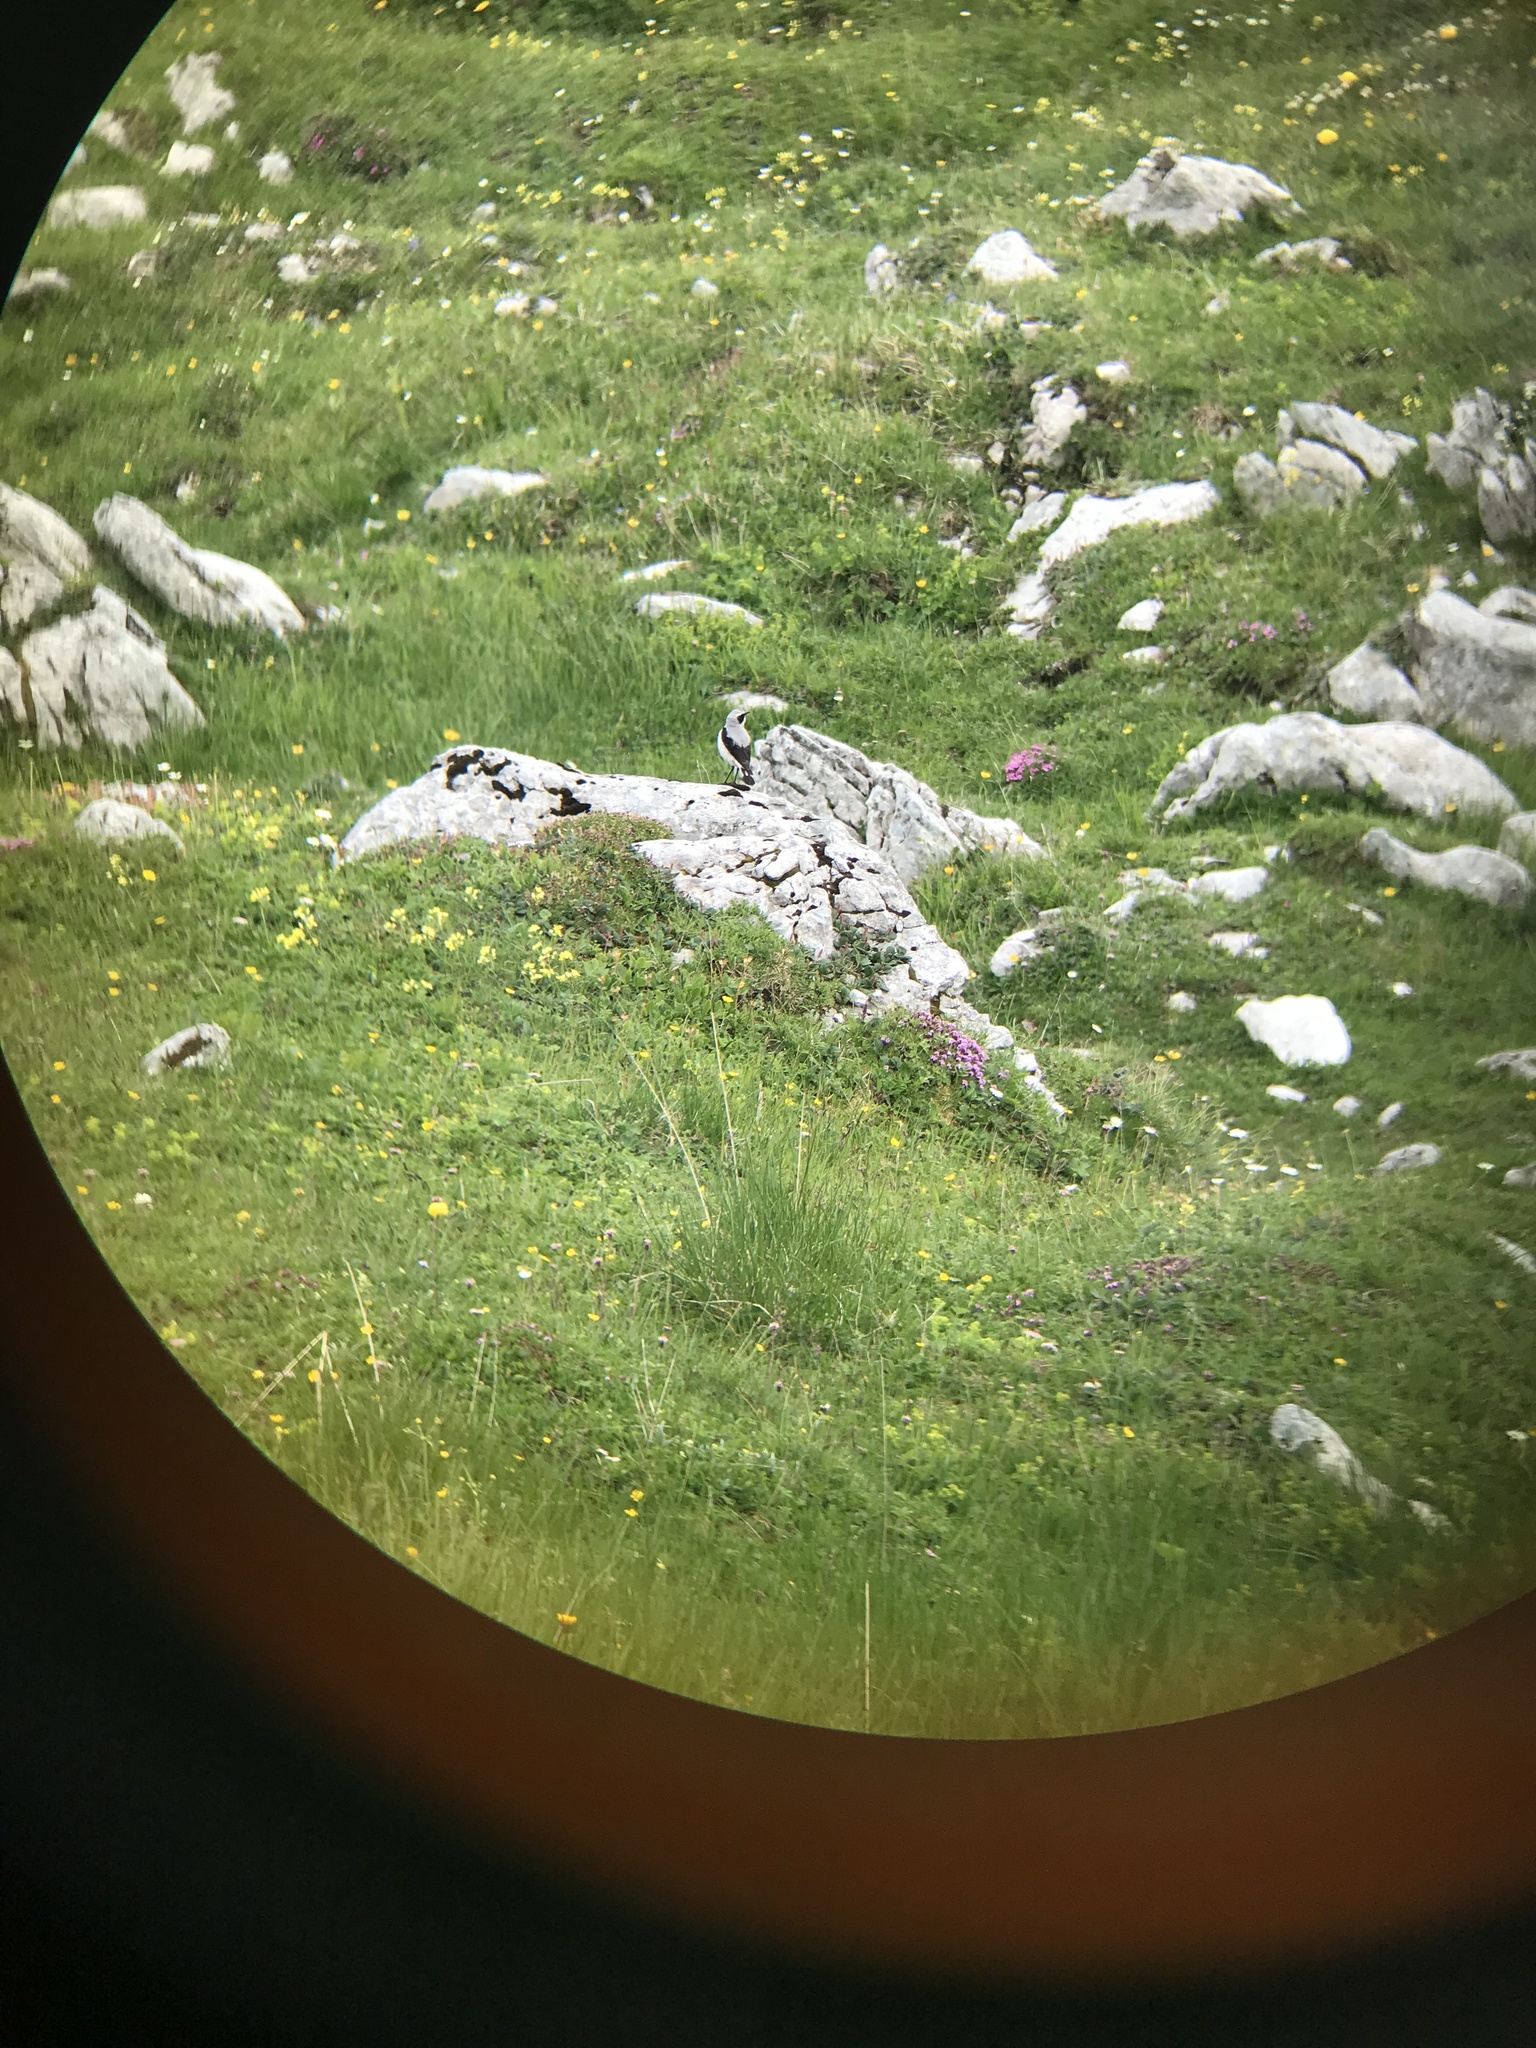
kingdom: Animalia
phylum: Chordata
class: Aves
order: Passeriformes
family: Muscicapidae
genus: Oenanthe
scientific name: Oenanthe oenanthe
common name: Northern wheatear
